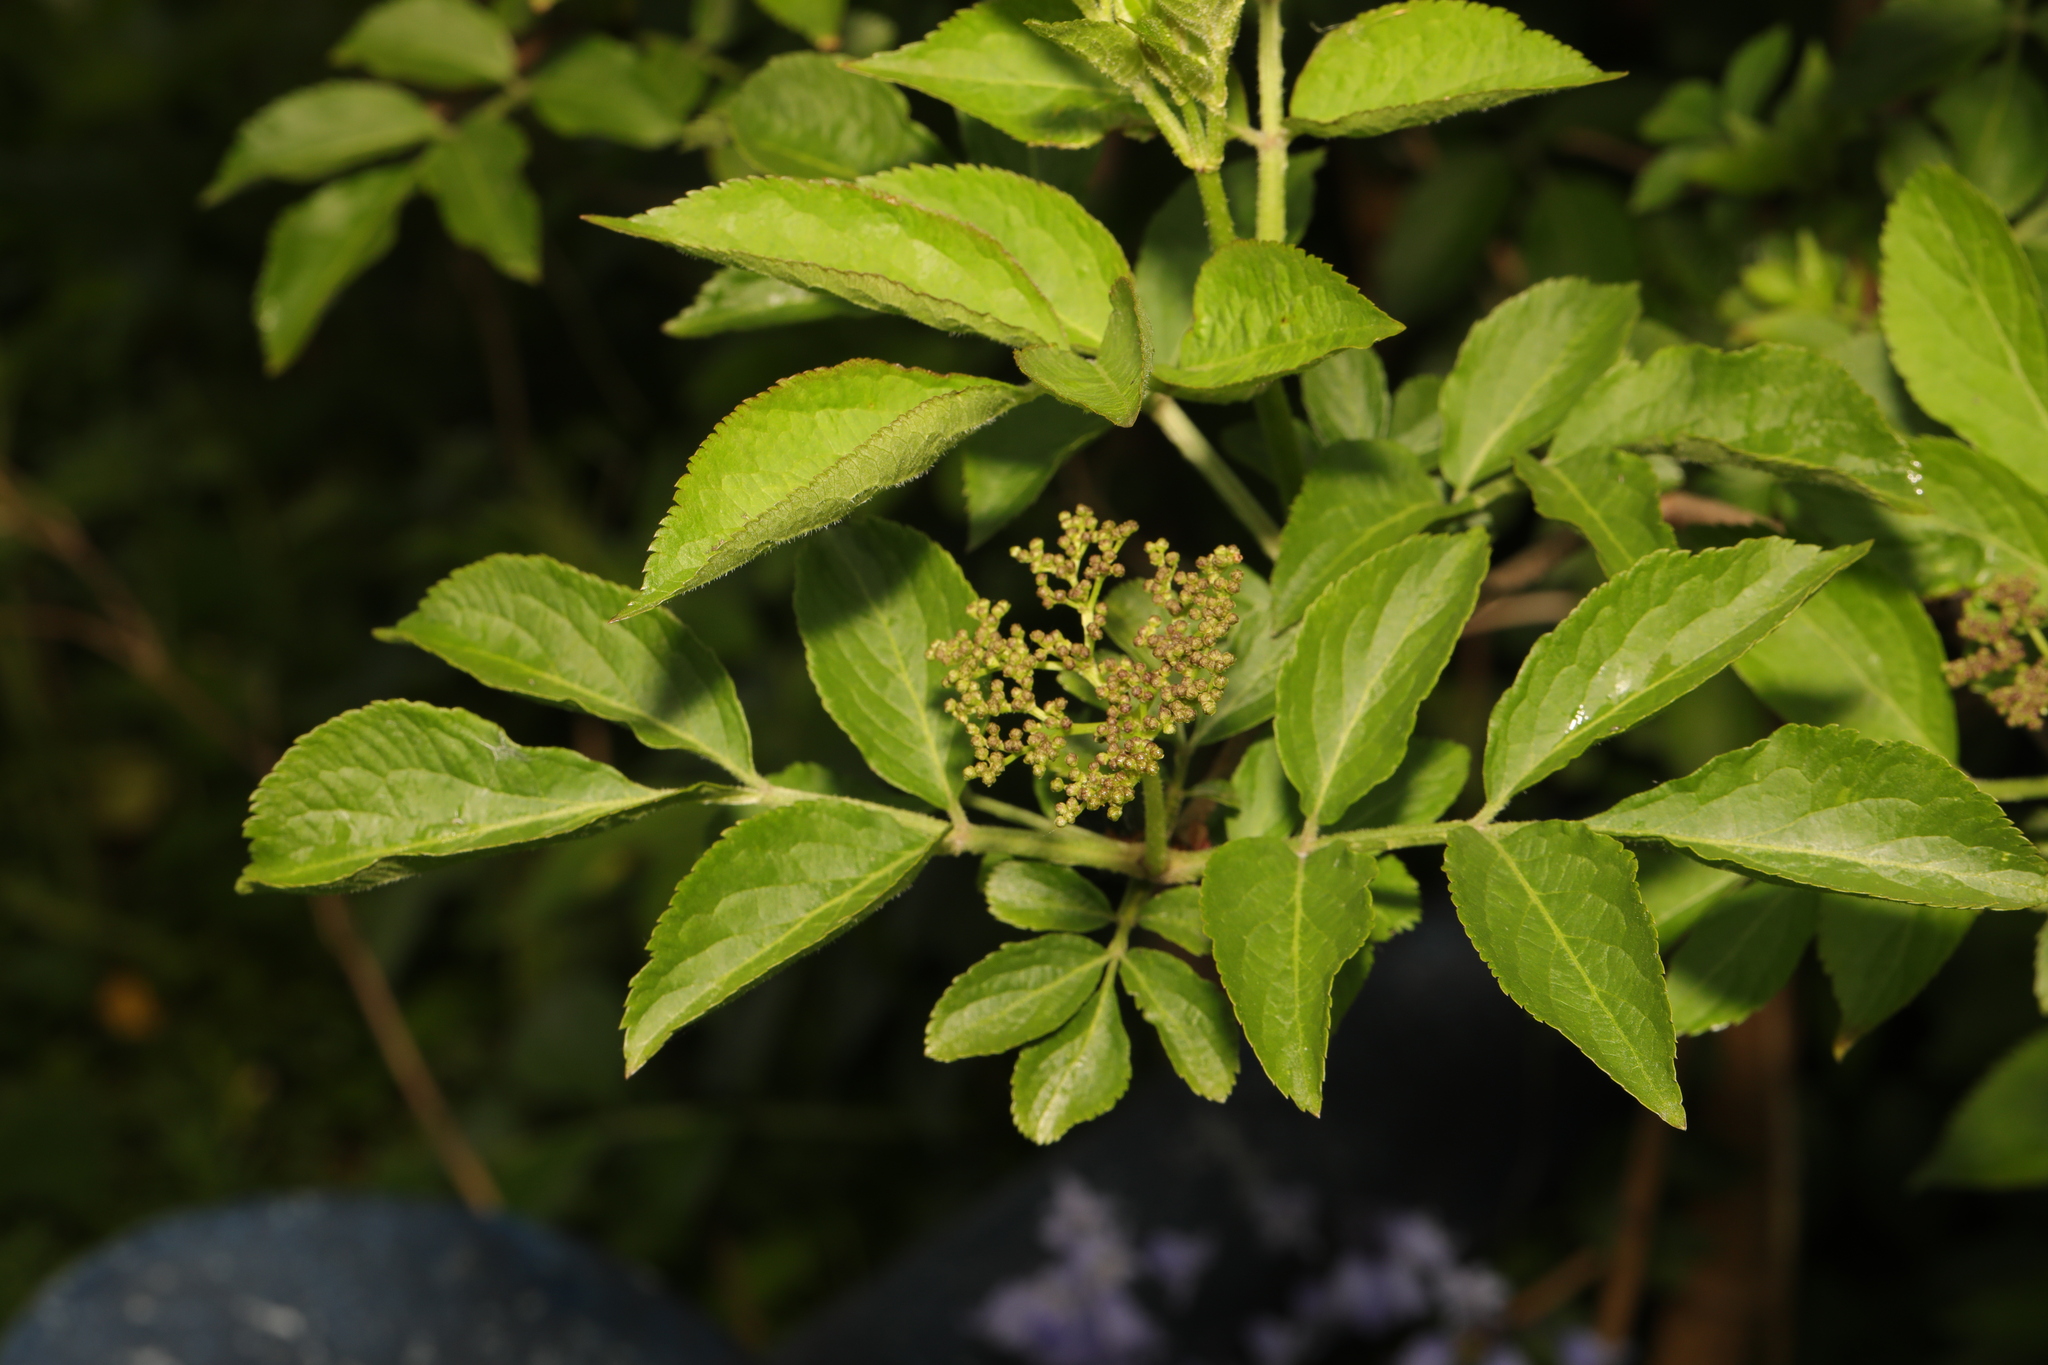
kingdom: Plantae
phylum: Tracheophyta
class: Magnoliopsida
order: Dipsacales
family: Viburnaceae
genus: Sambucus
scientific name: Sambucus nigra
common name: Elder
